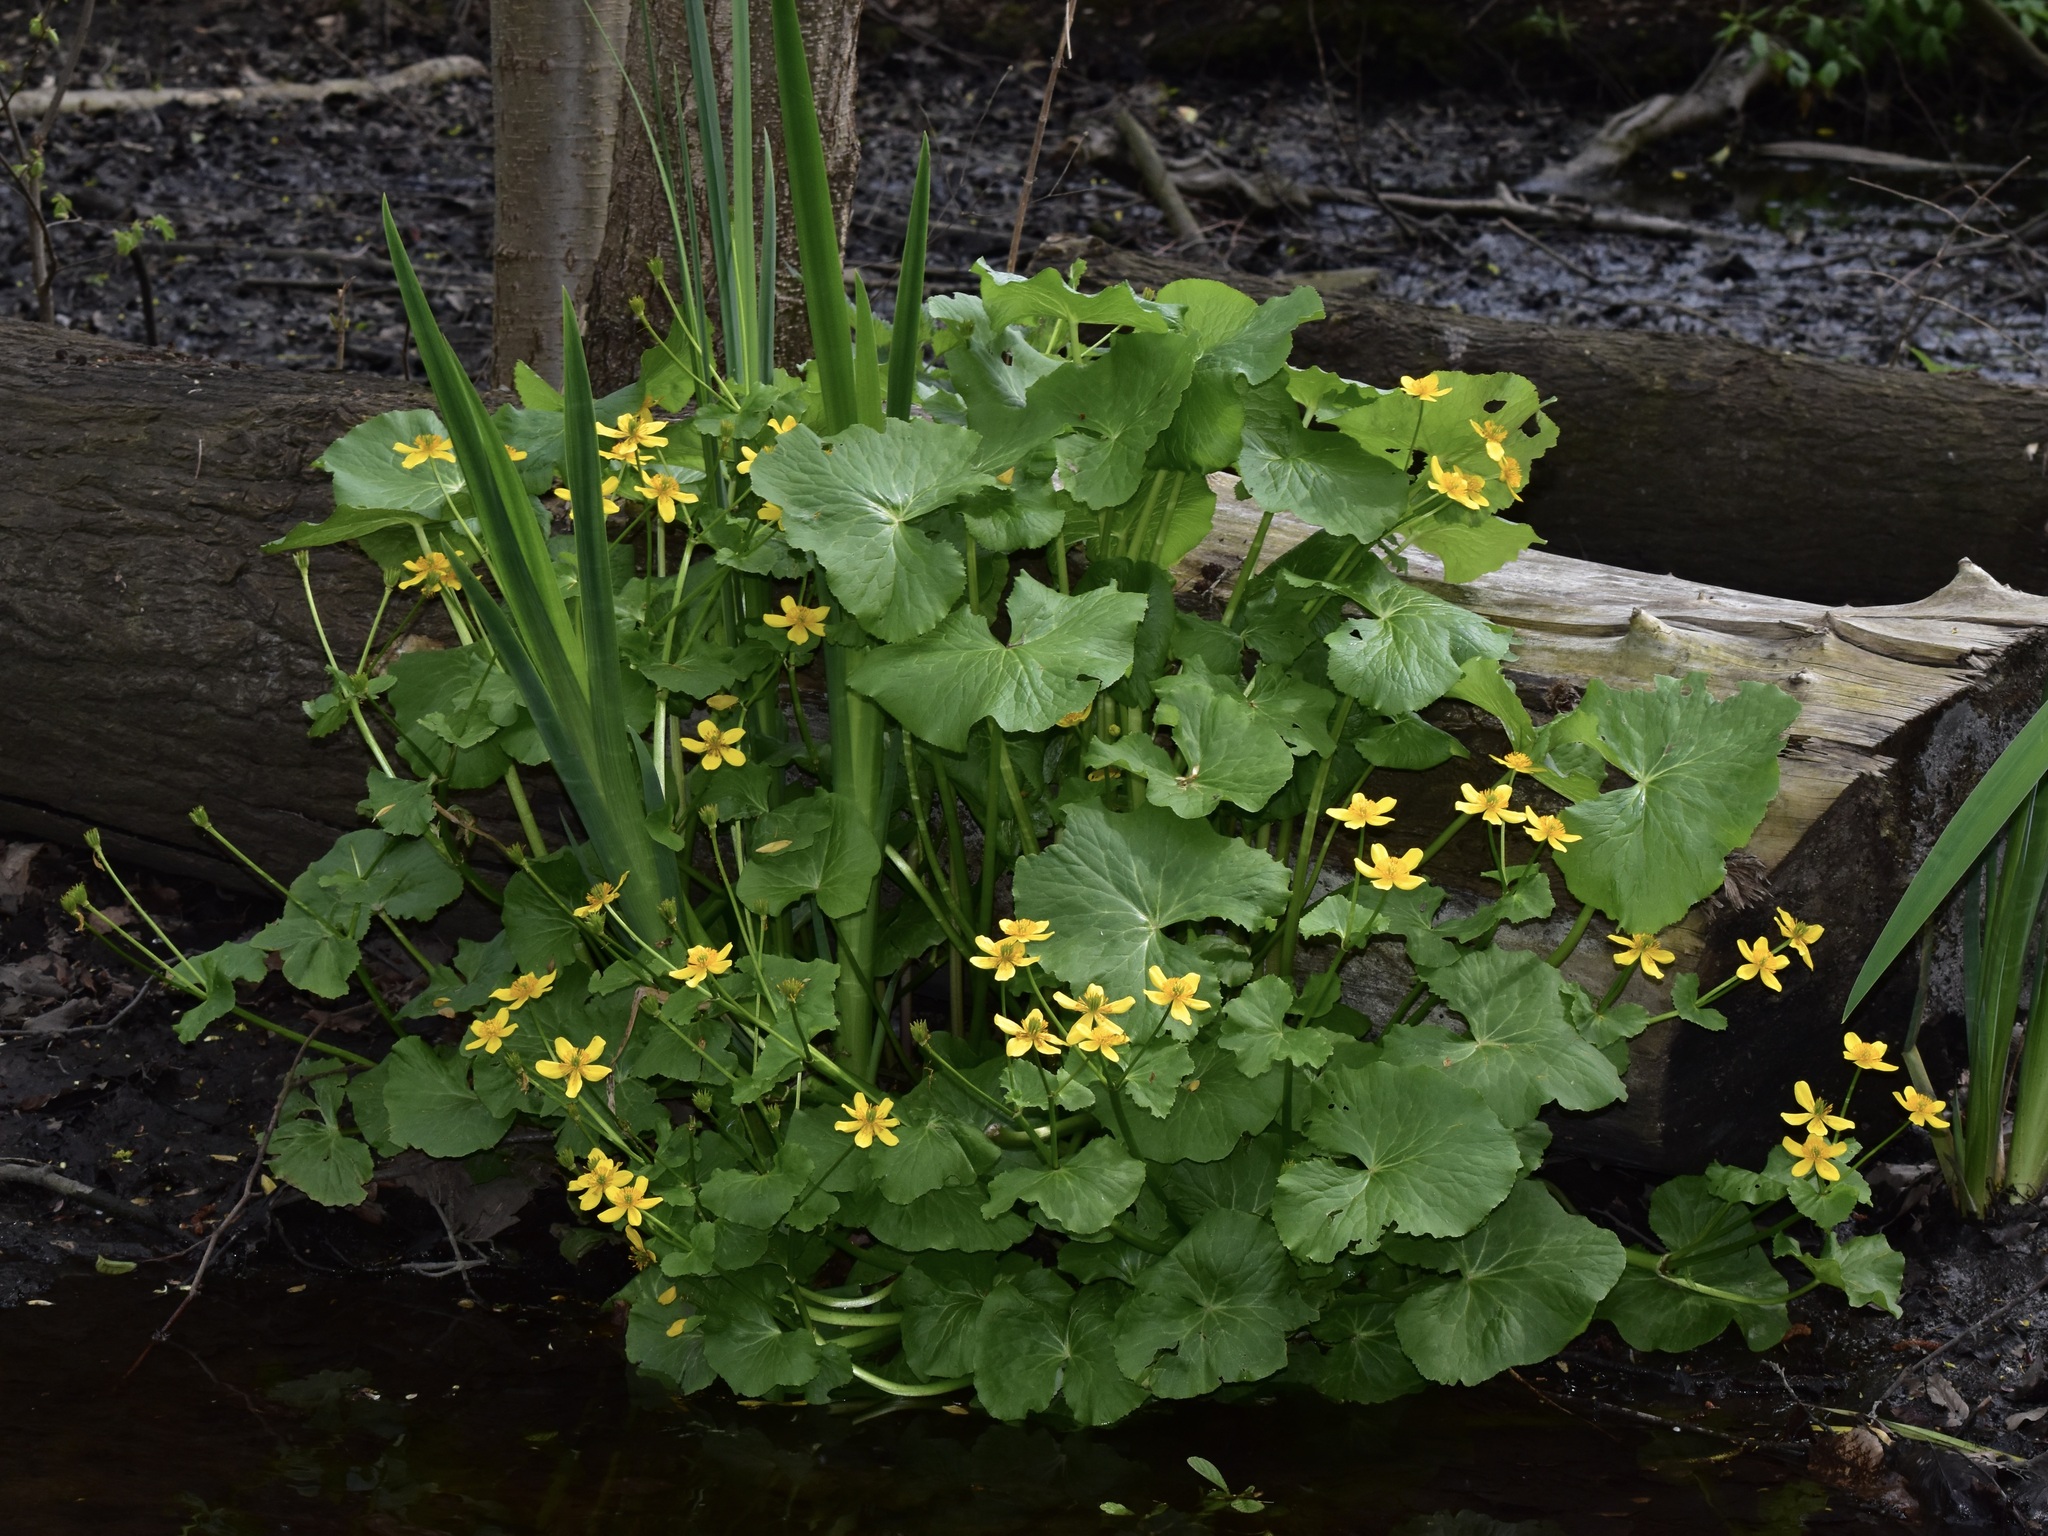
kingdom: Plantae
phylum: Tracheophyta
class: Magnoliopsida
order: Ranunculales
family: Ranunculaceae
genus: Caltha
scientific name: Caltha palustris
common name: Marsh marigold
